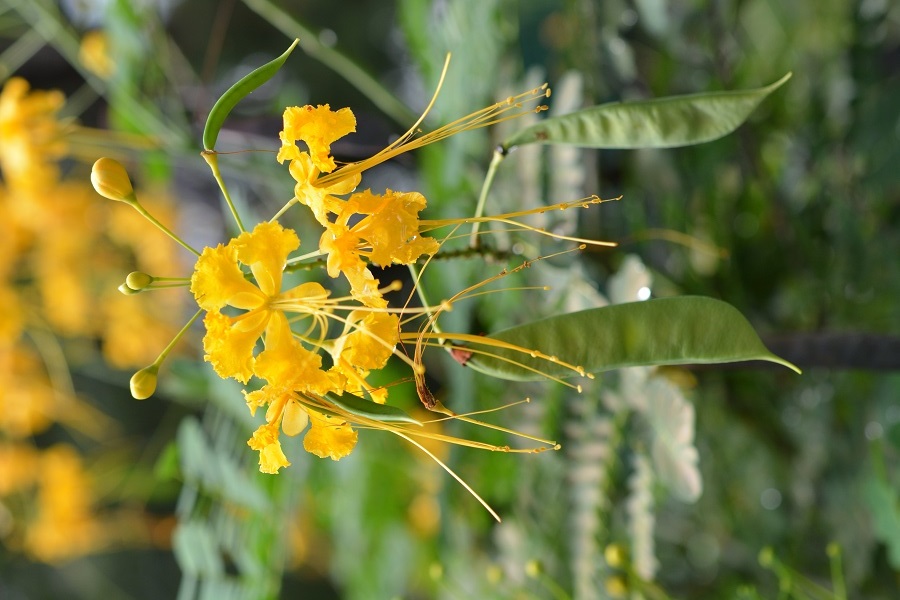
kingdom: Plantae
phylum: Tracheophyta
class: Magnoliopsida
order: Fabales
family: Fabaceae
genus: Caesalpinia
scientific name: Caesalpinia pulcherrima
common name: Pride-of-barbados
